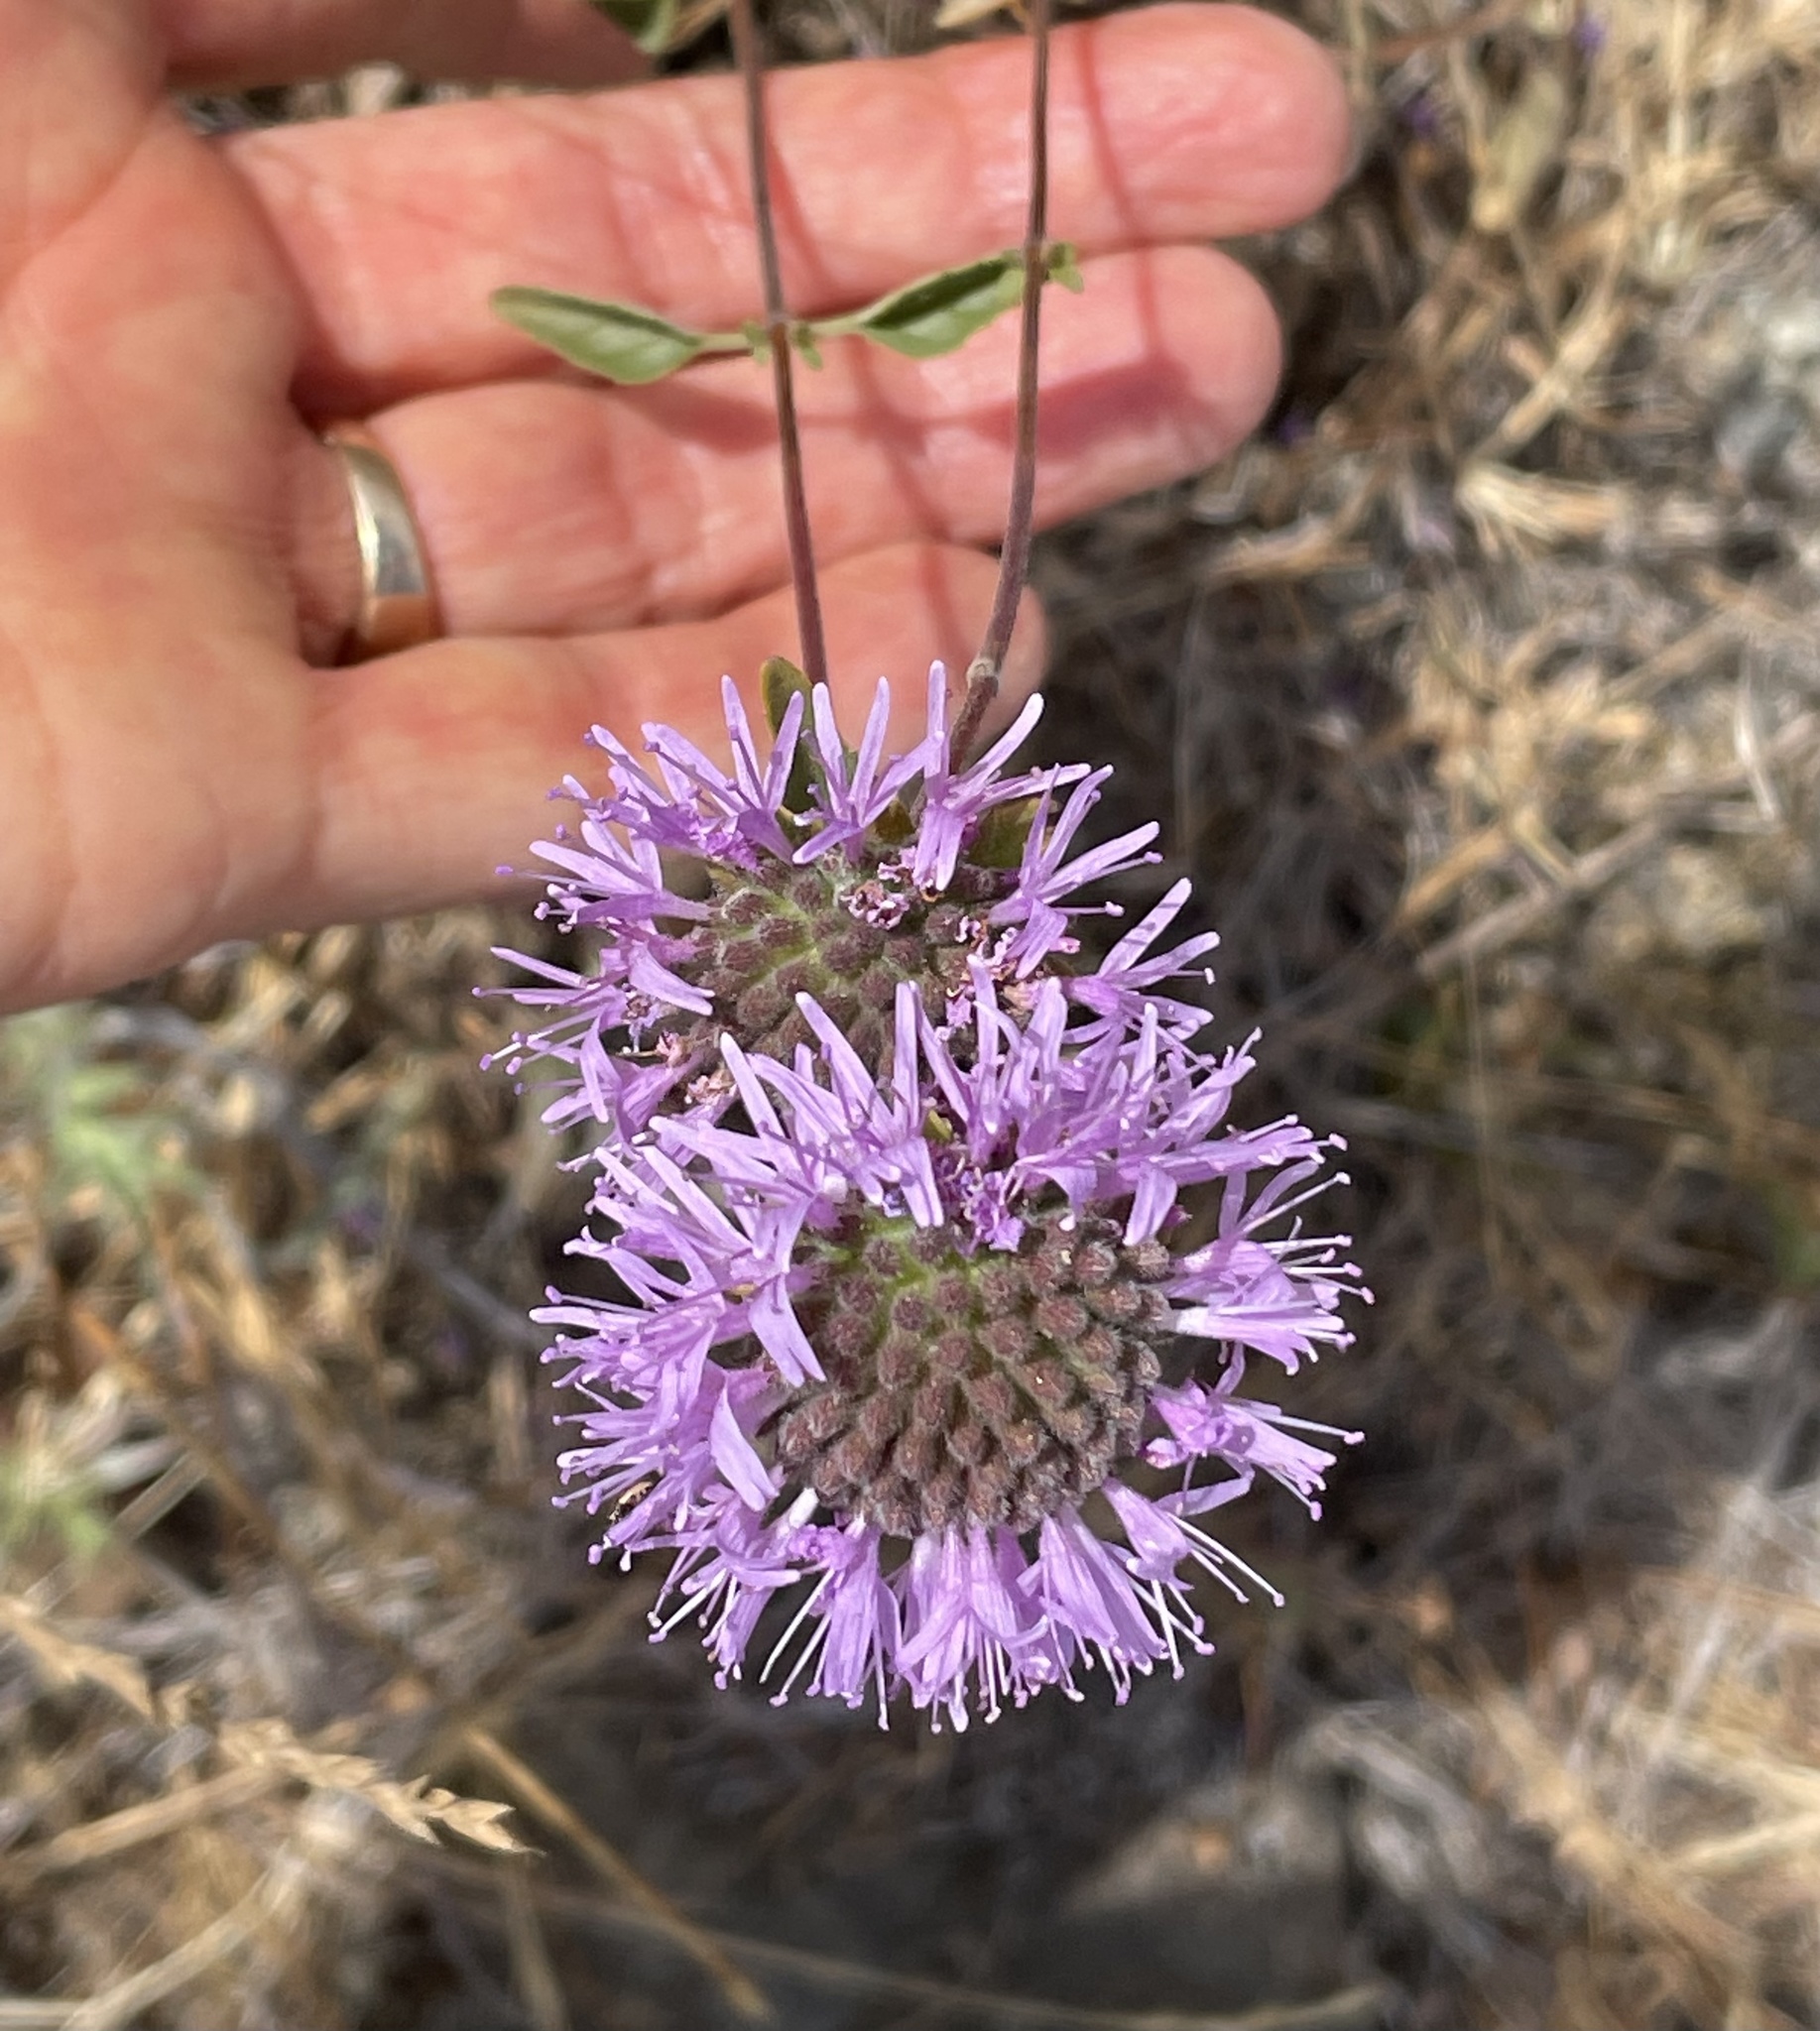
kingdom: Plantae
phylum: Tracheophyta
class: Magnoliopsida
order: Lamiales
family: Lamiaceae
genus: Monardella
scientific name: Monardella odoratissima
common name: Pacific monardella
